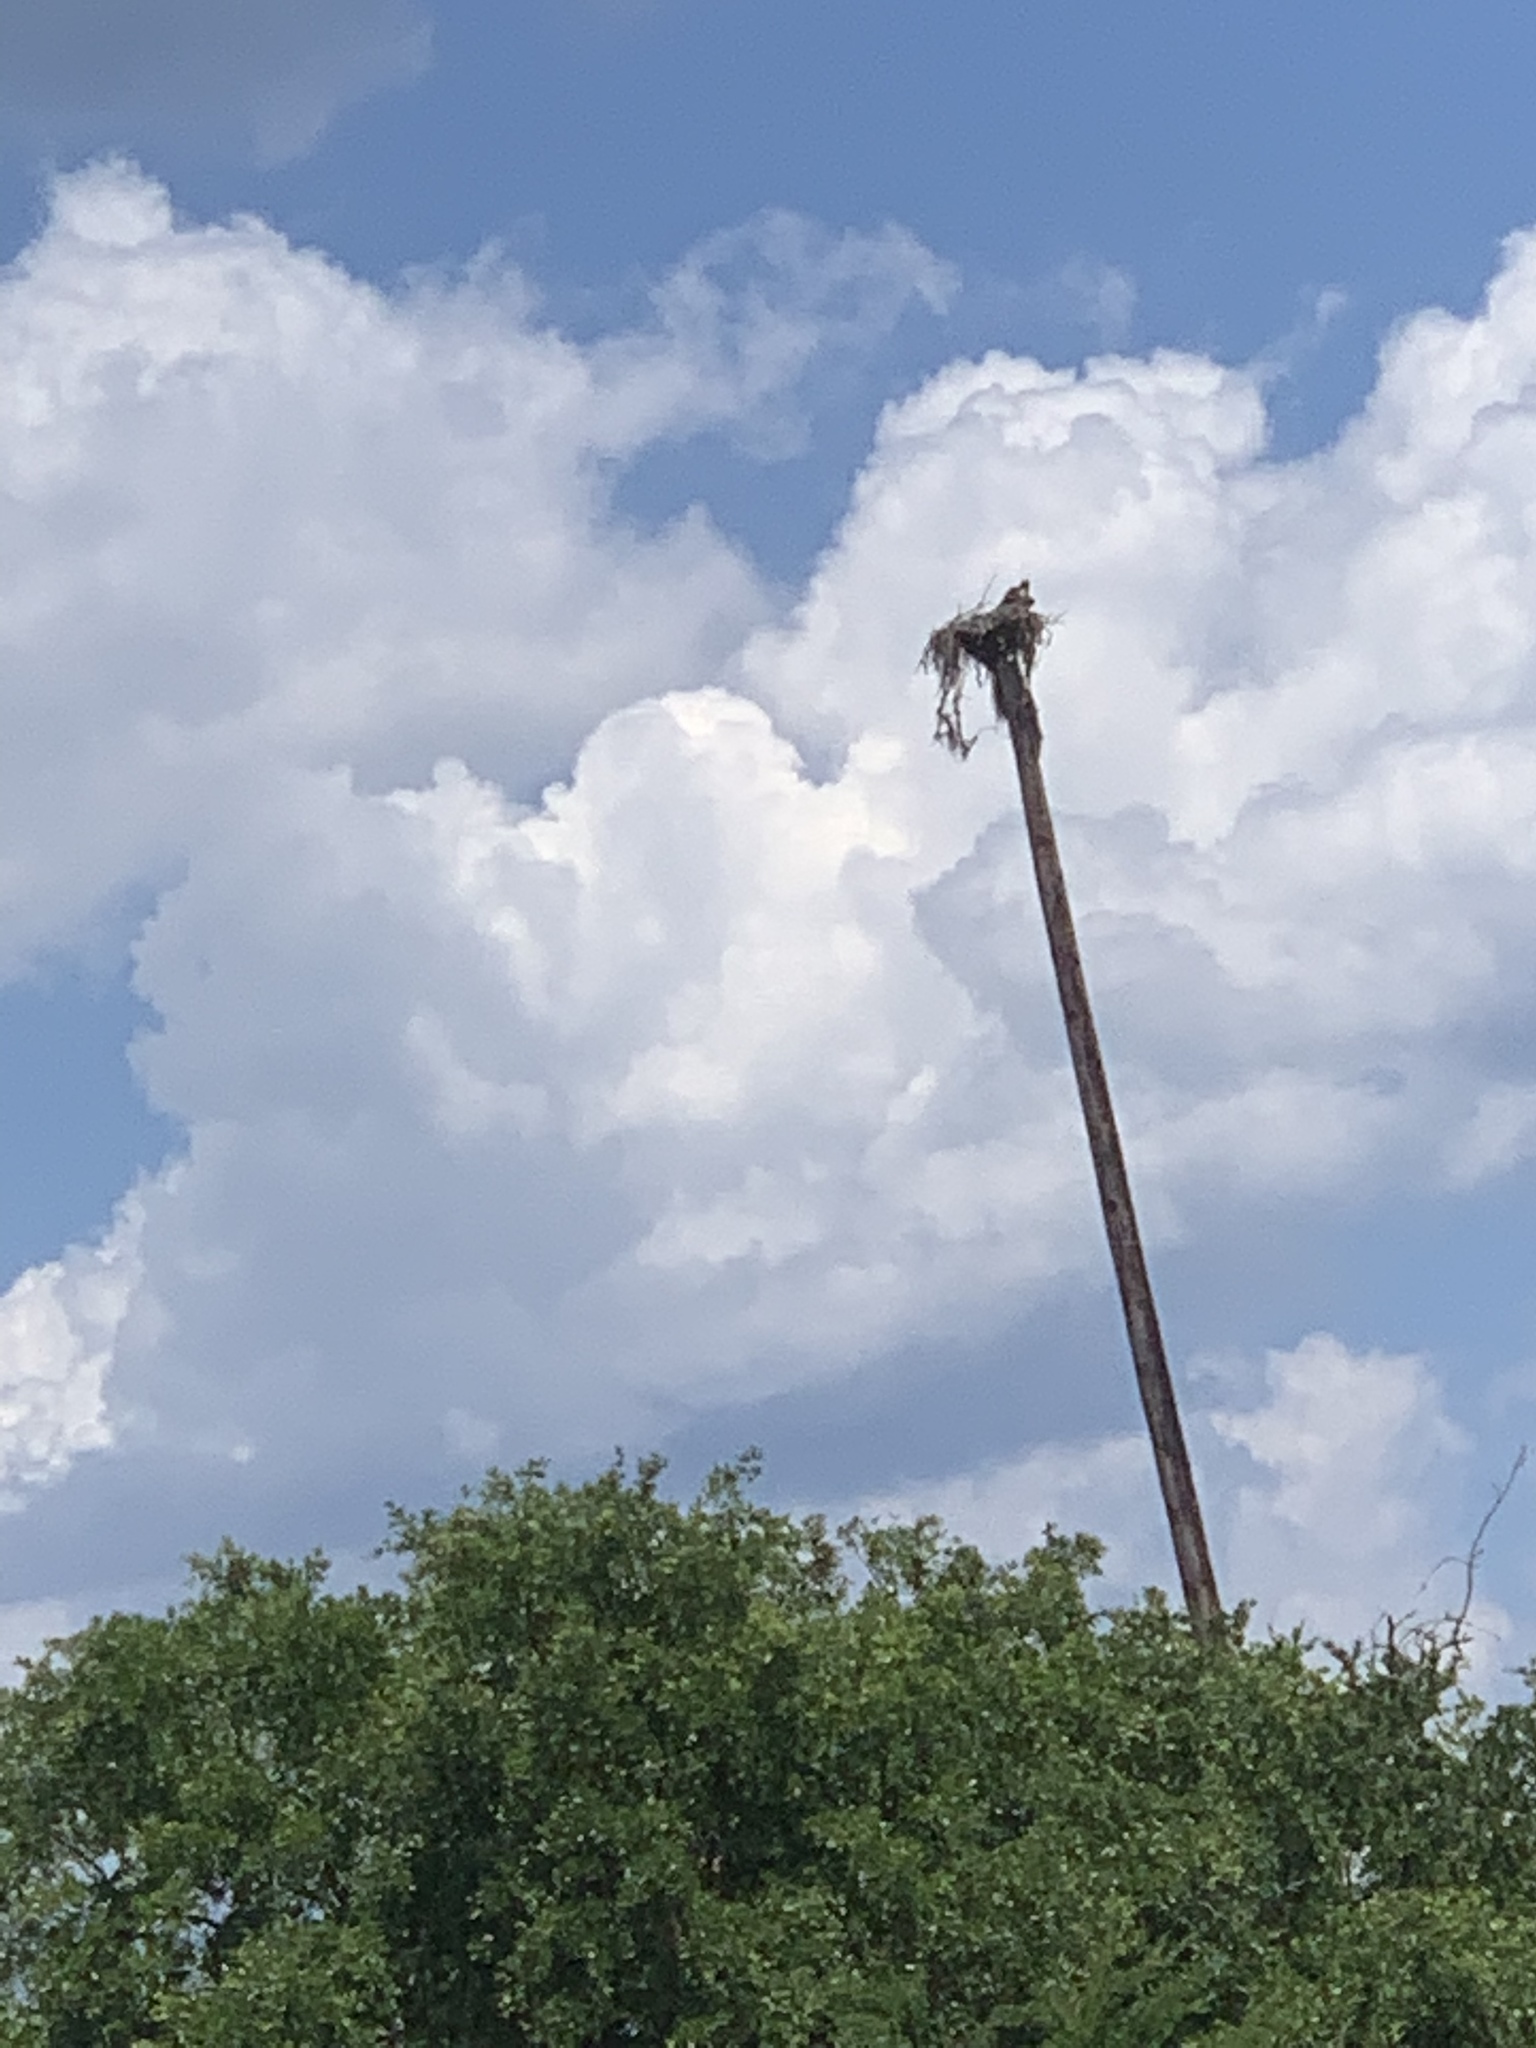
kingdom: Animalia
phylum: Chordata
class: Aves
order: Accipitriformes
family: Pandionidae
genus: Pandion
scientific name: Pandion haliaetus
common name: Osprey
